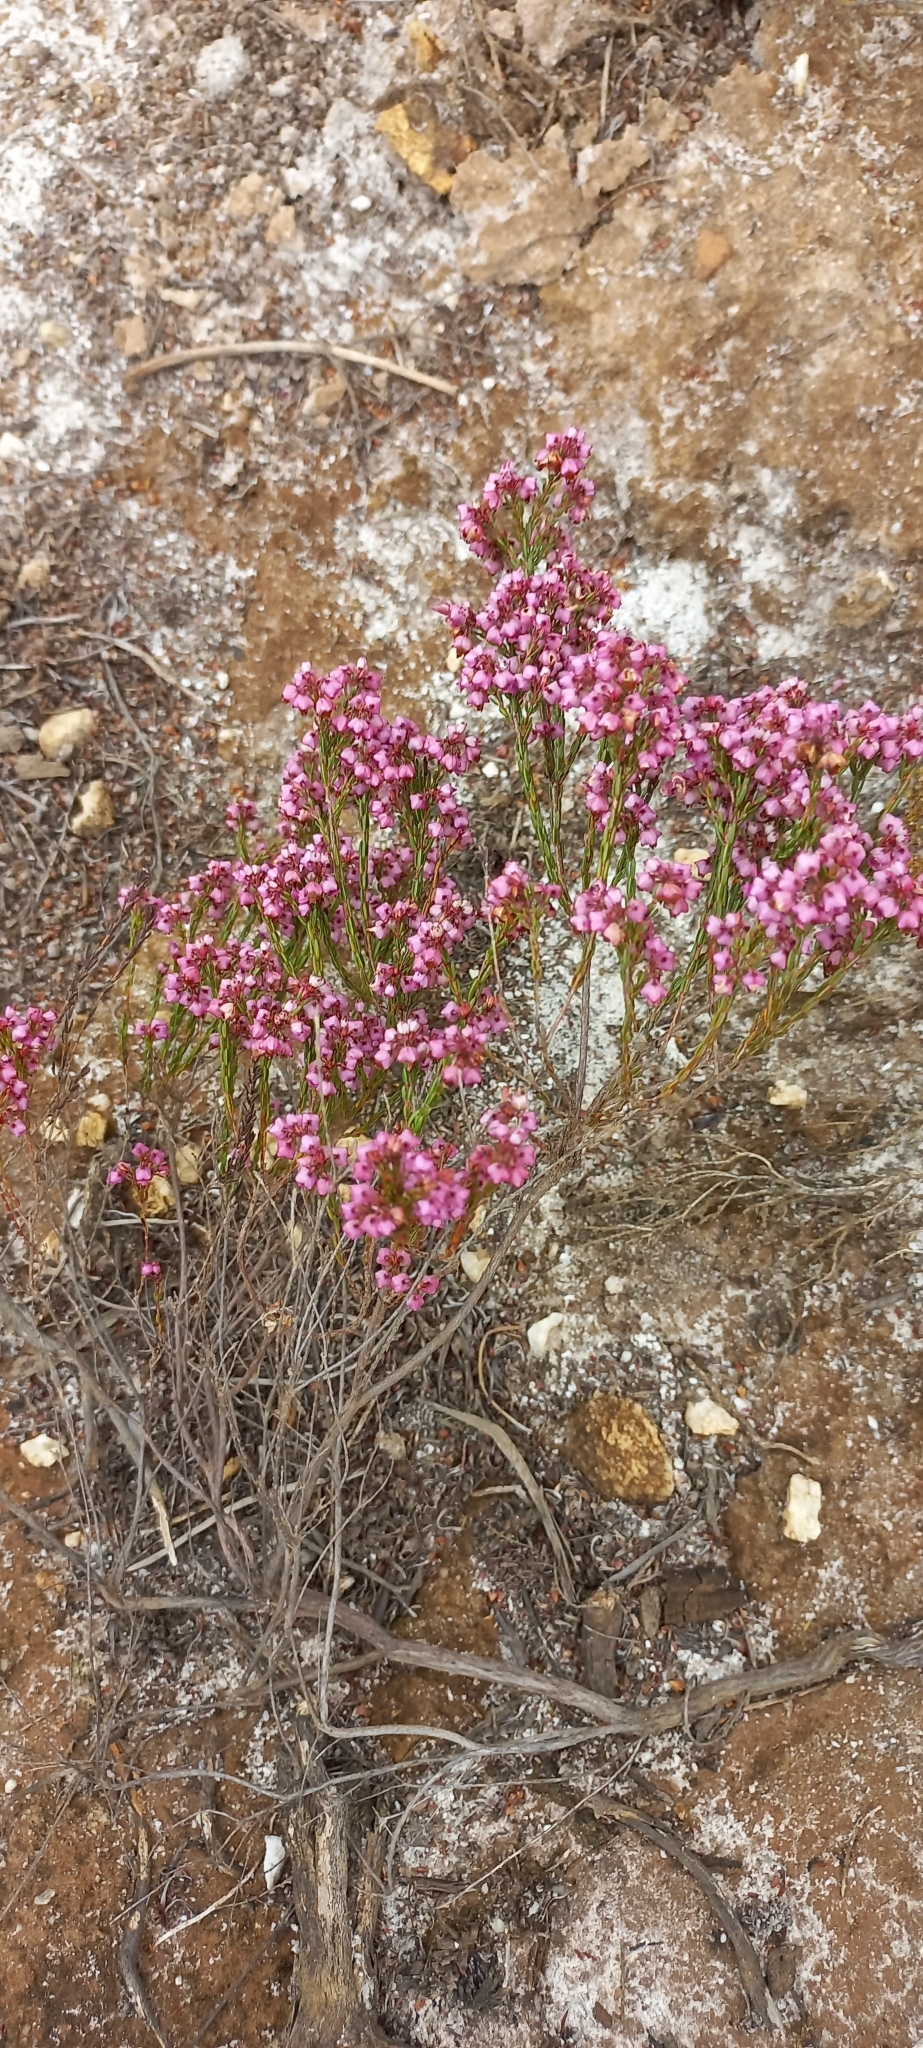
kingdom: Plantae
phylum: Tracheophyta
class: Magnoliopsida
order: Ericales
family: Ericaceae
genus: Erica
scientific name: Erica rhopalantha
